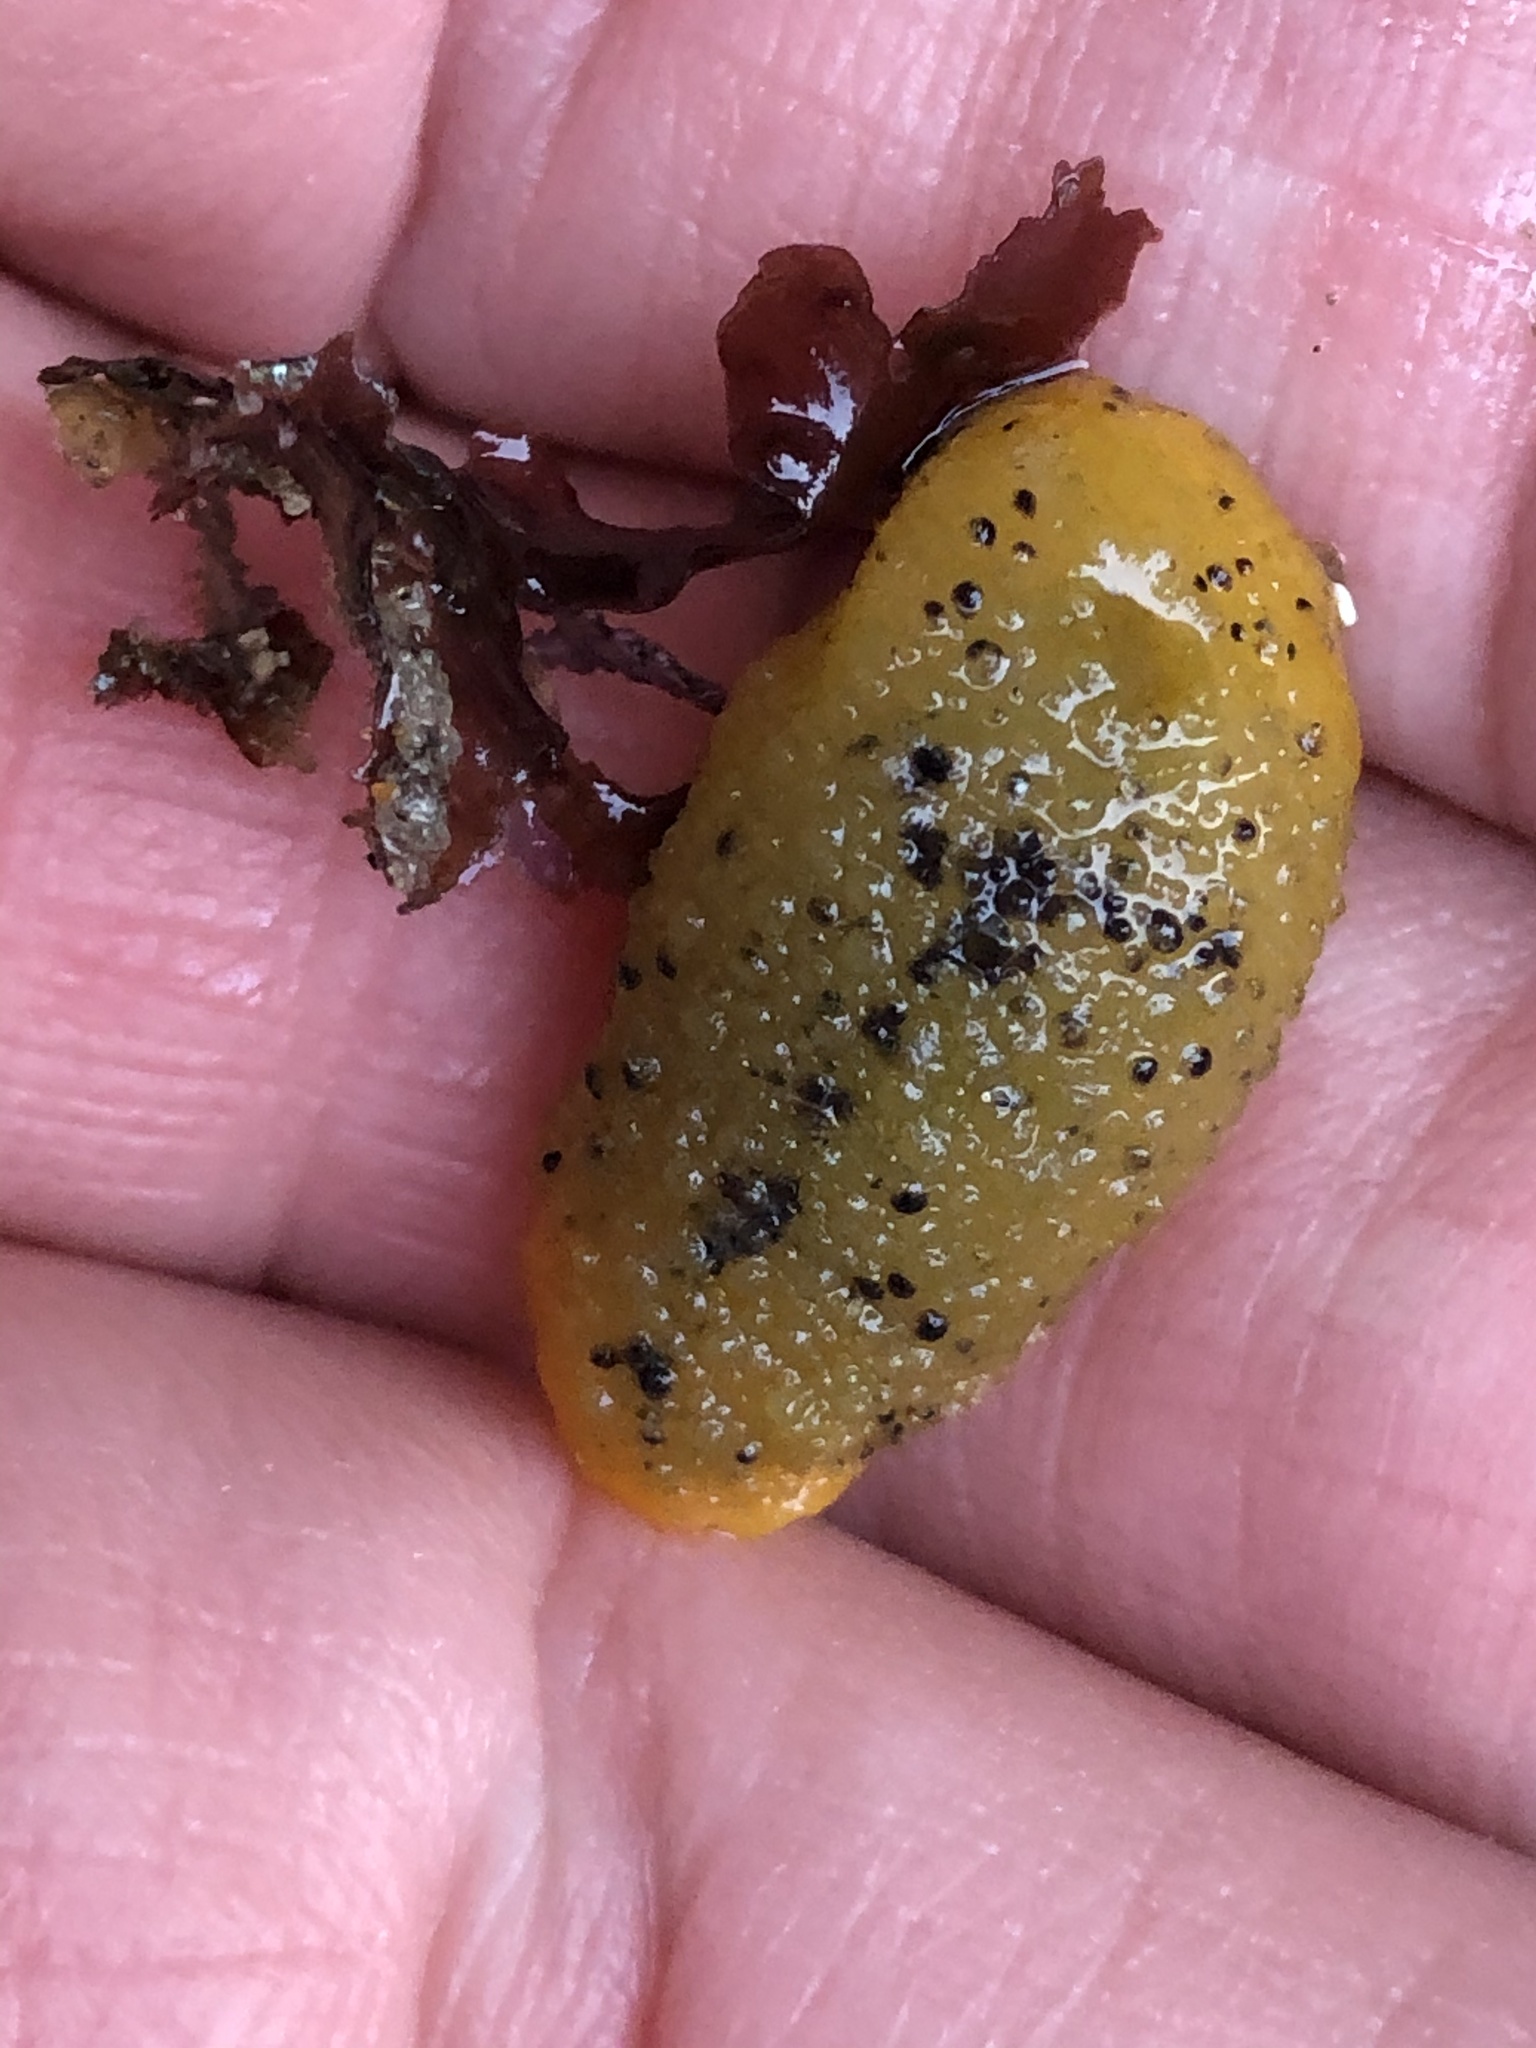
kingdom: Animalia
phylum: Mollusca
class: Gastropoda
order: Nudibranchia
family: Dorididae
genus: Doris
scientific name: Doris montereyensis
